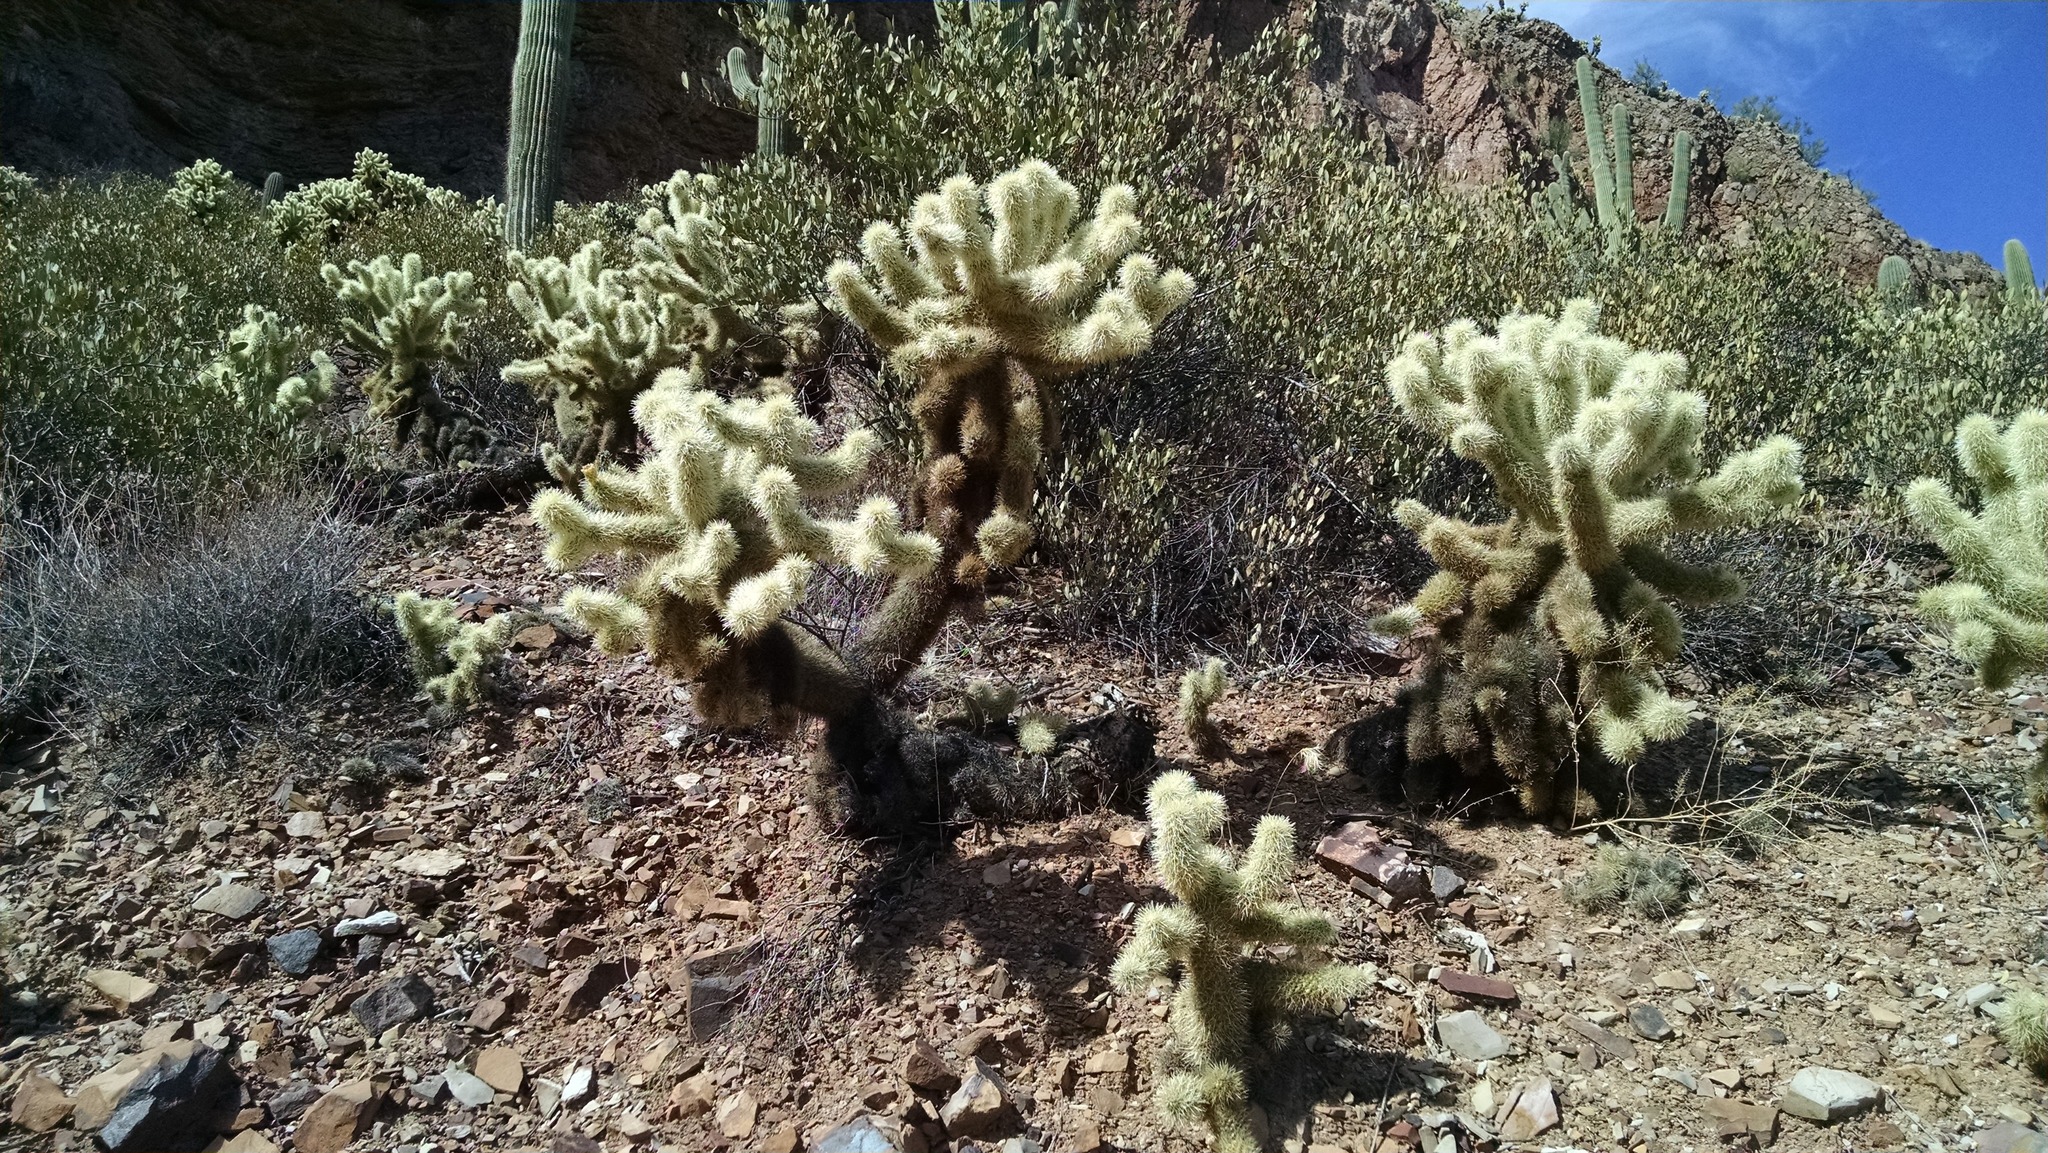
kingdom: Plantae
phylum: Tracheophyta
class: Magnoliopsida
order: Caryophyllales
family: Cactaceae
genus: Cylindropuntia
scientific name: Cylindropuntia fosbergii
